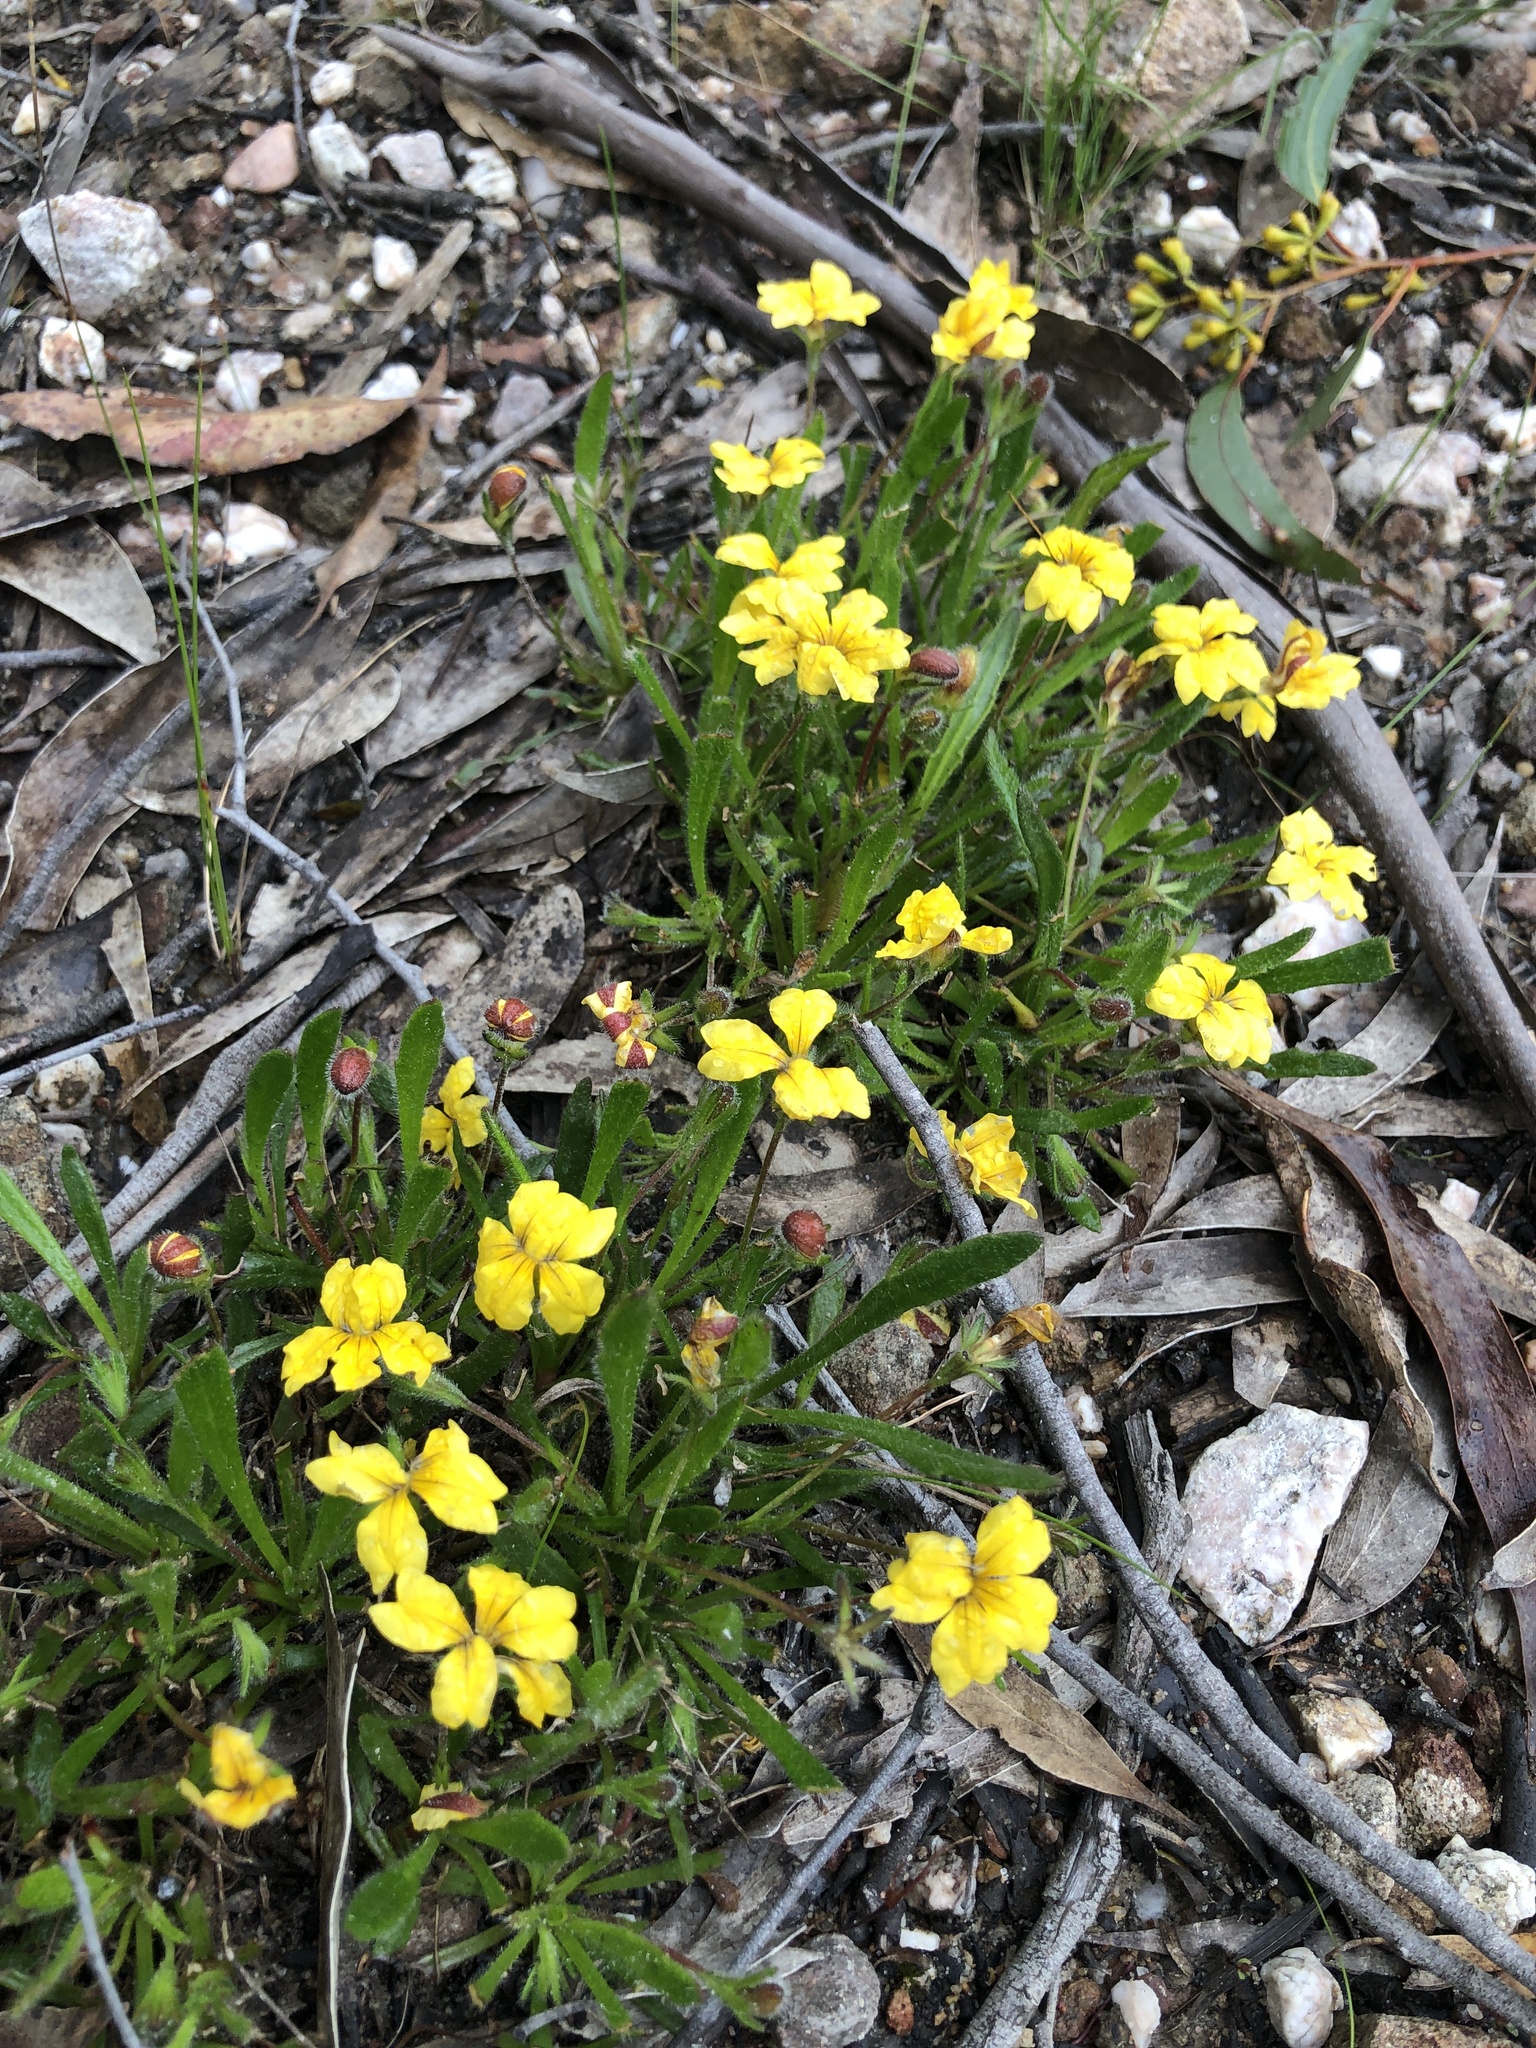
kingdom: Plantae
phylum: Tracheophyta
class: Magnoliopsida
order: Asterales
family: Goodeniaceae
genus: Goodenia
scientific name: Goodenia geniculata
